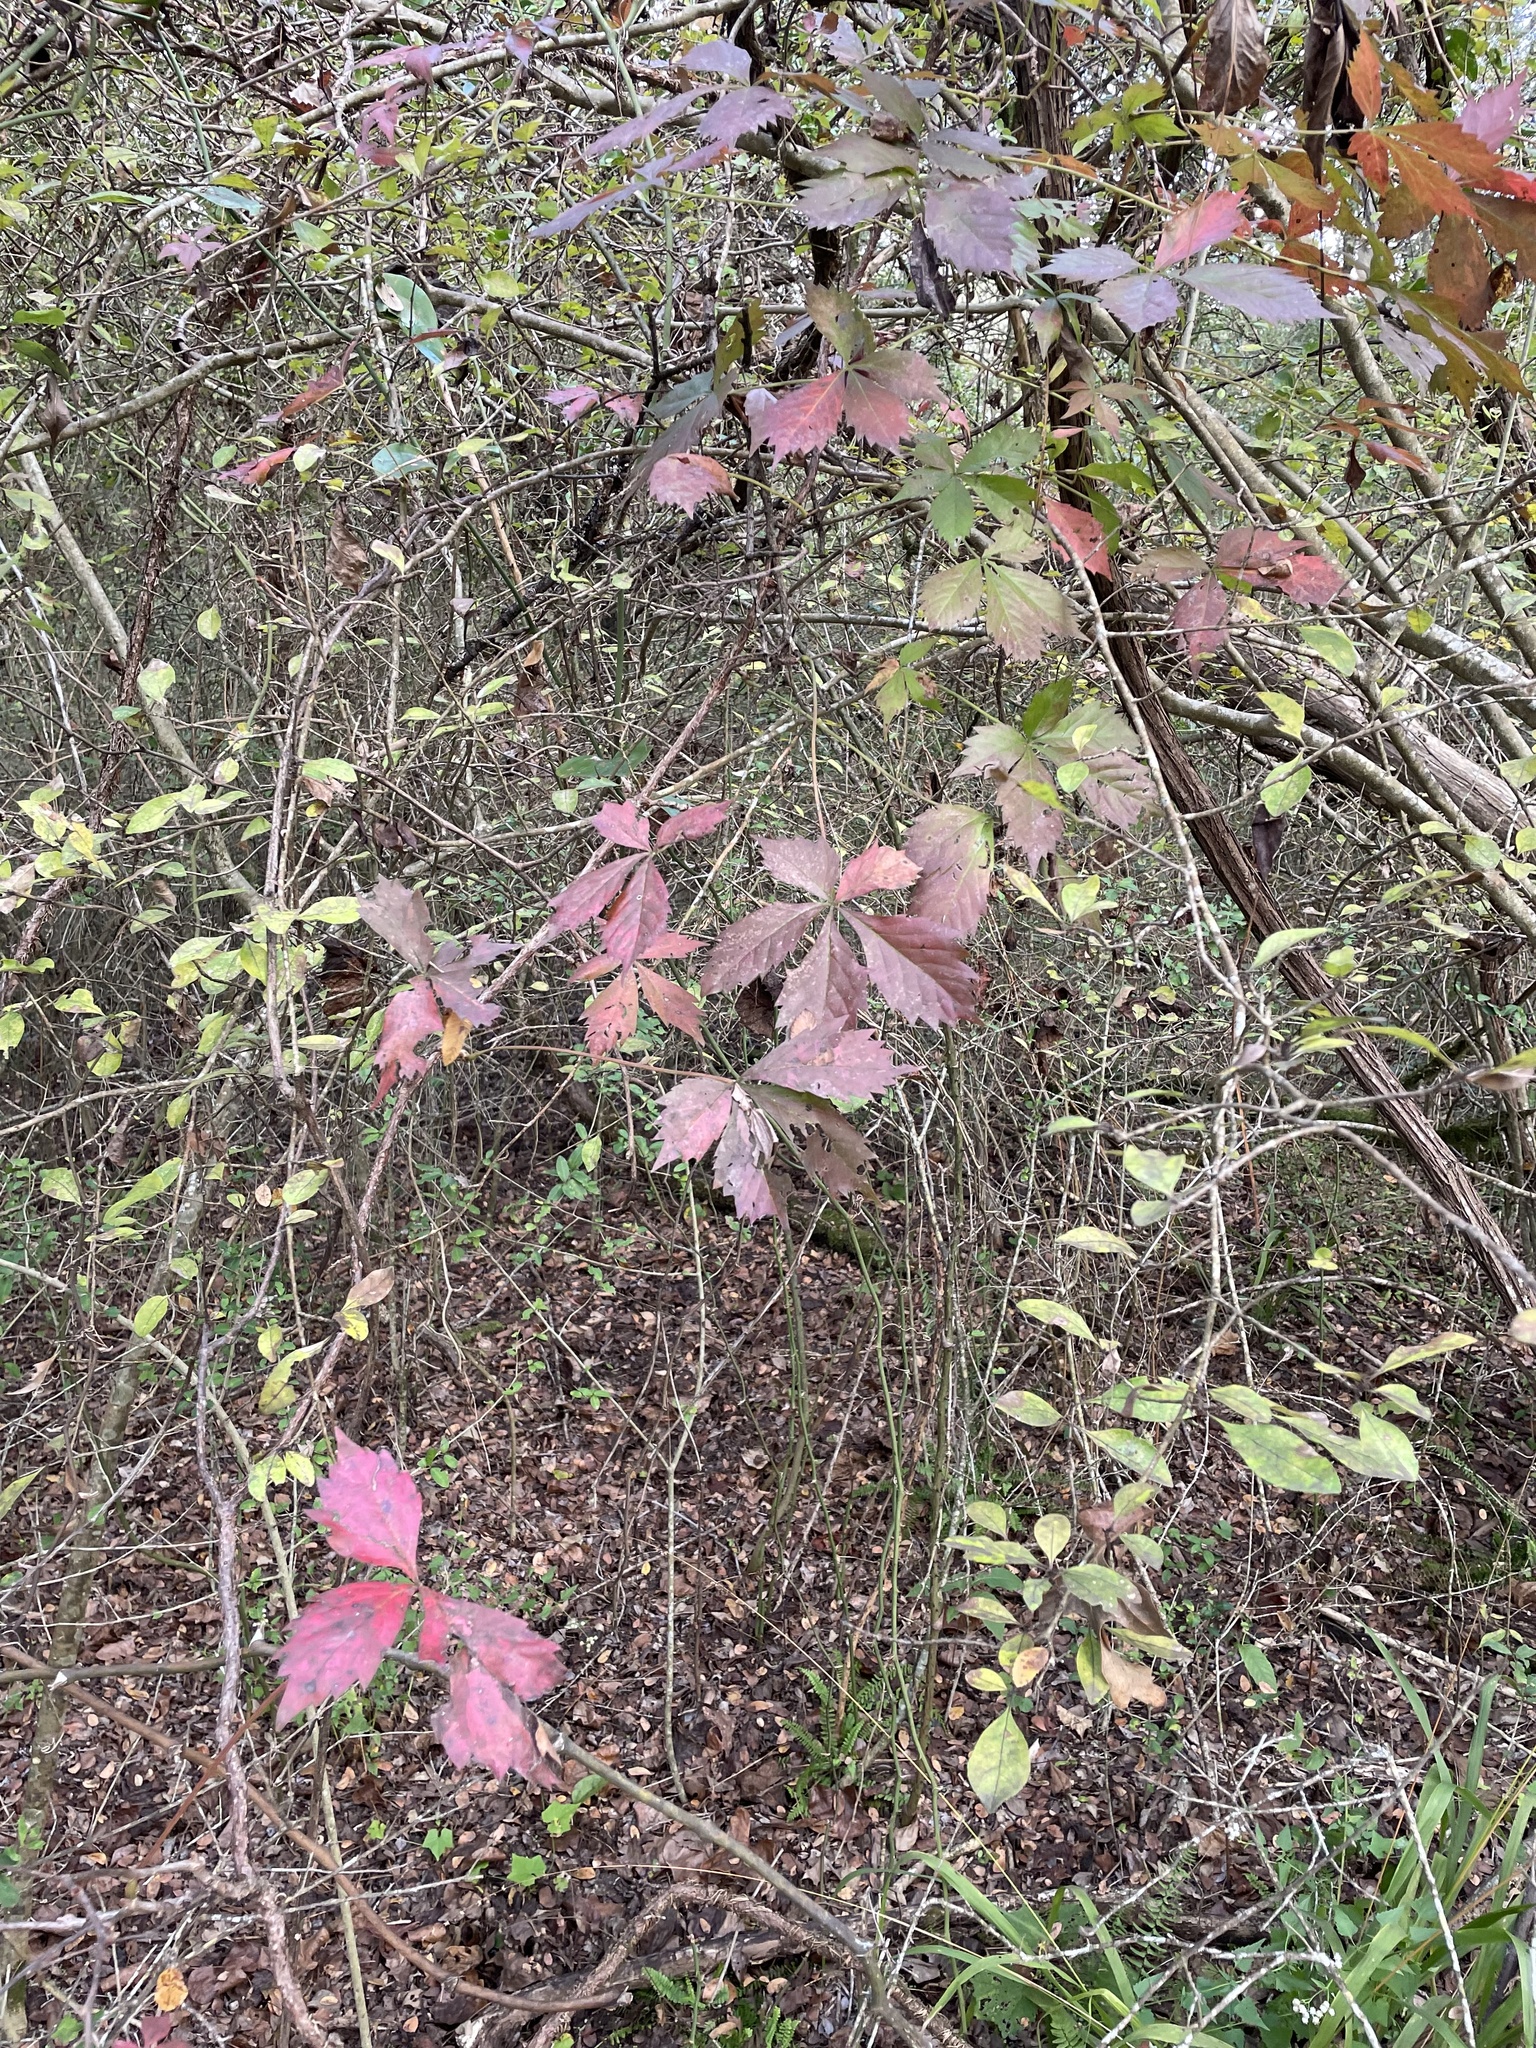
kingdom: Plantae
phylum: Tracheophyta
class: Magnoliopsida
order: Vitales
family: Vitaceae
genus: Parthenocissus
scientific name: Parthenocissus quinquefolia
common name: Virginia-creeper
